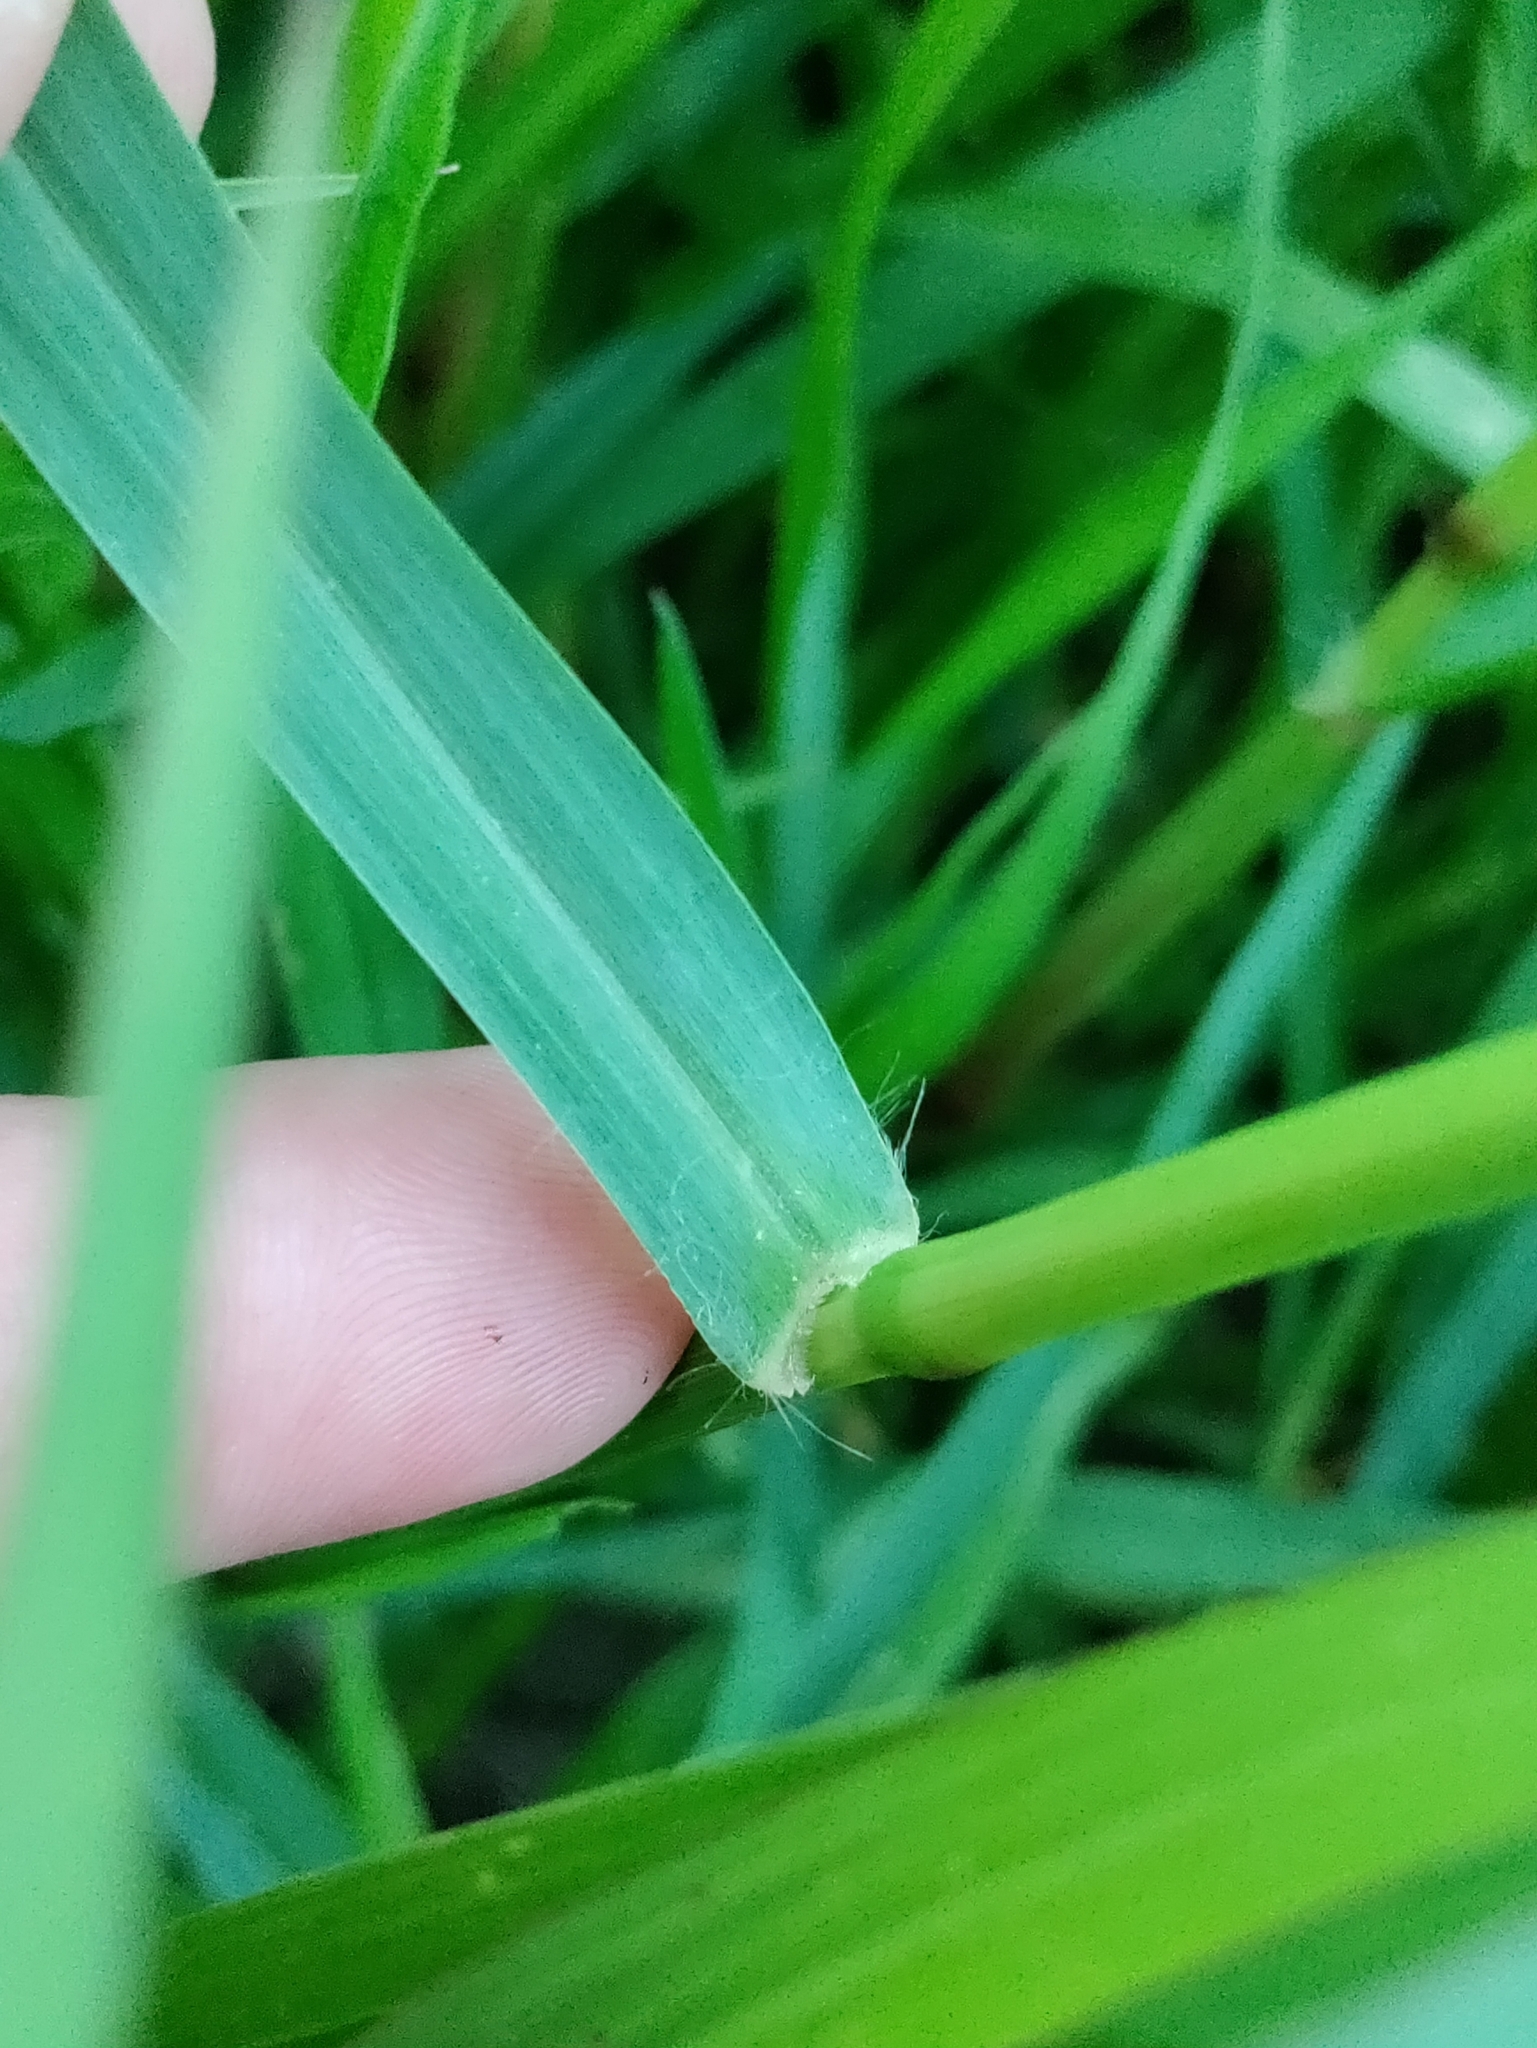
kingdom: Plantae
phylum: Tracheophyta
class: Liliopsida
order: Poales
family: Poaceae
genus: Setaria
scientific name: Setaria pumila
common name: Yellow bristle-grass
